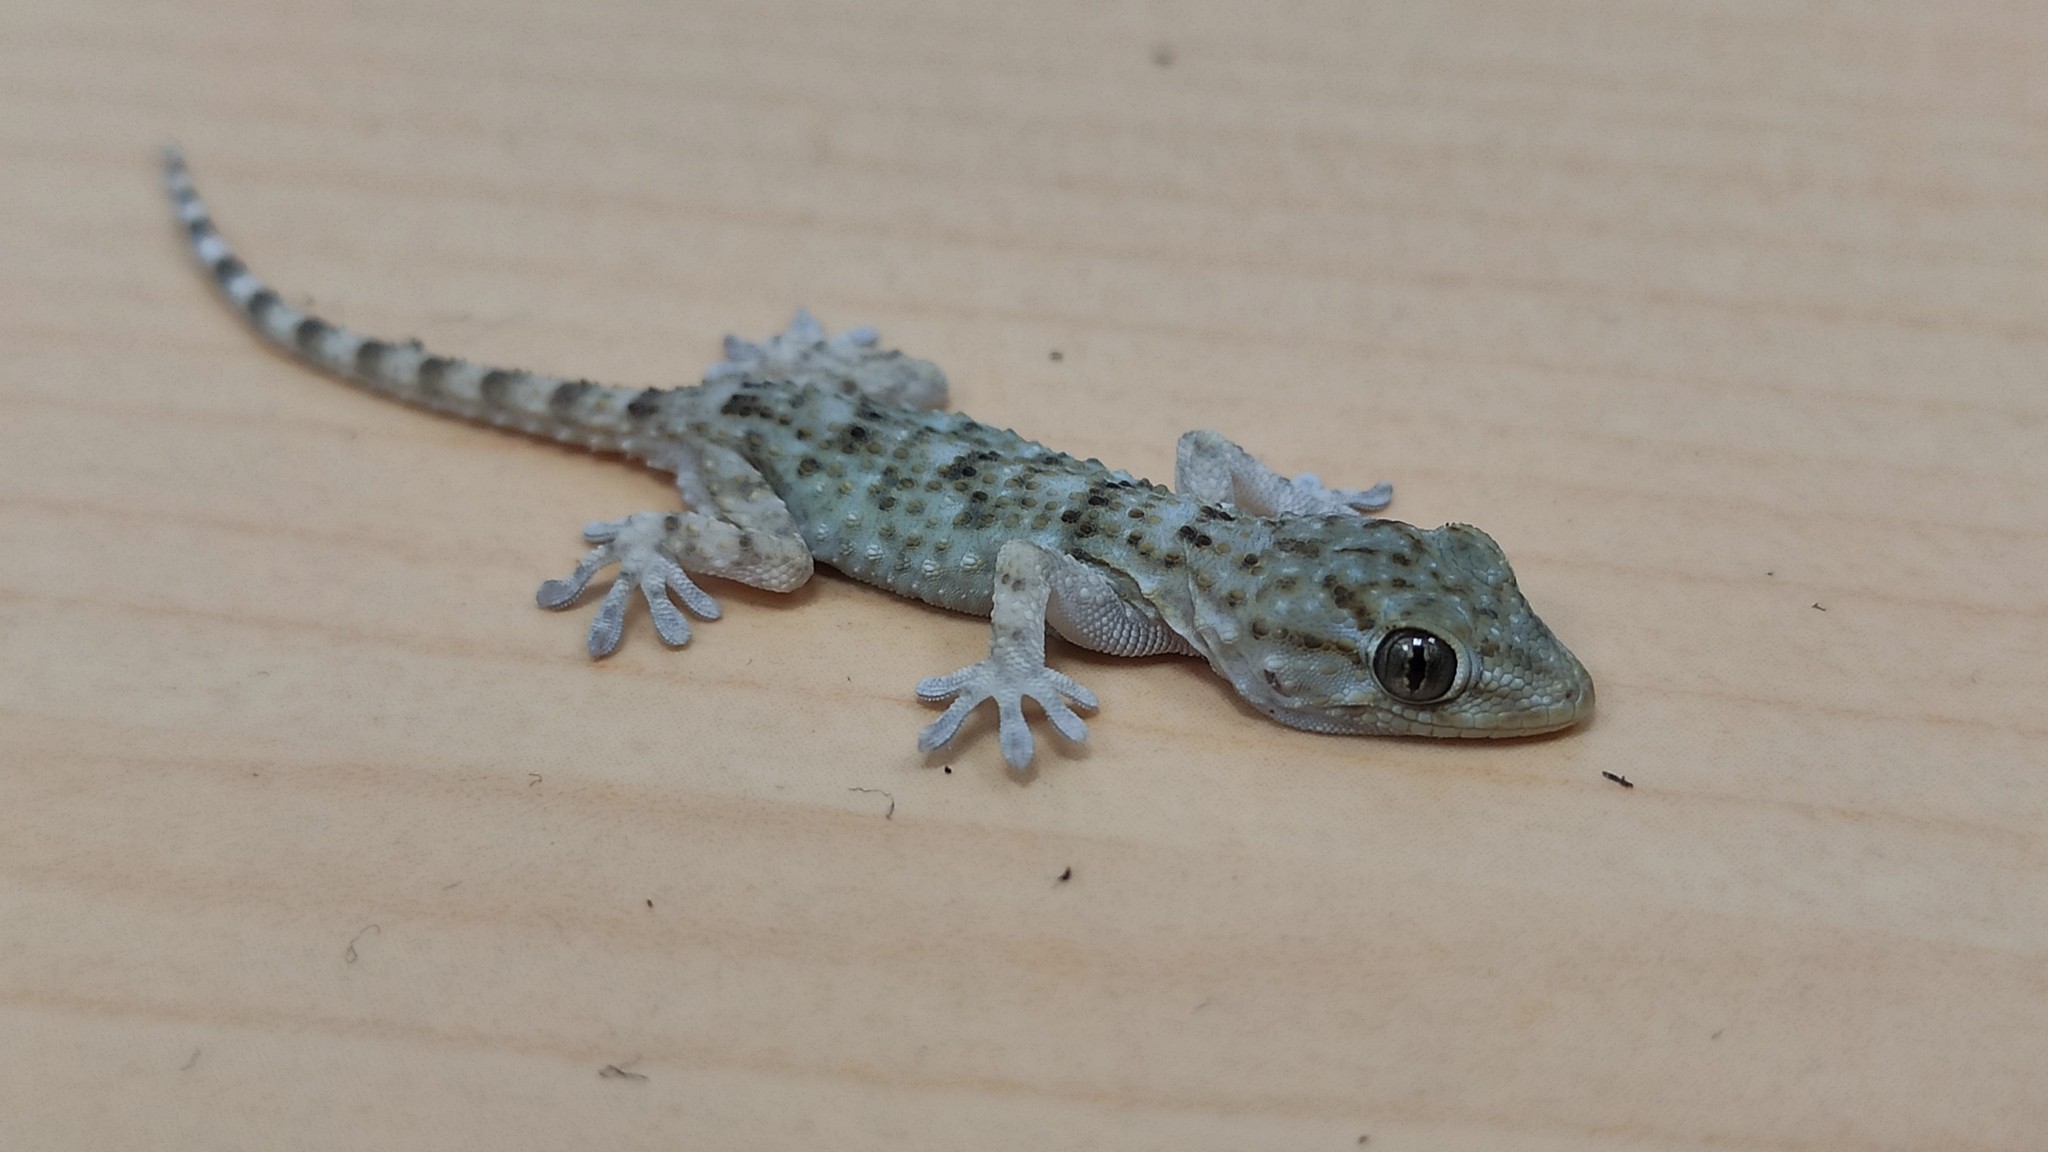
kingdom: Animalia
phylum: Chordata
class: Squamata
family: Phyllodactylidae
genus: Tarentola
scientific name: Tarentola mauritanica
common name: Moorish gecko
